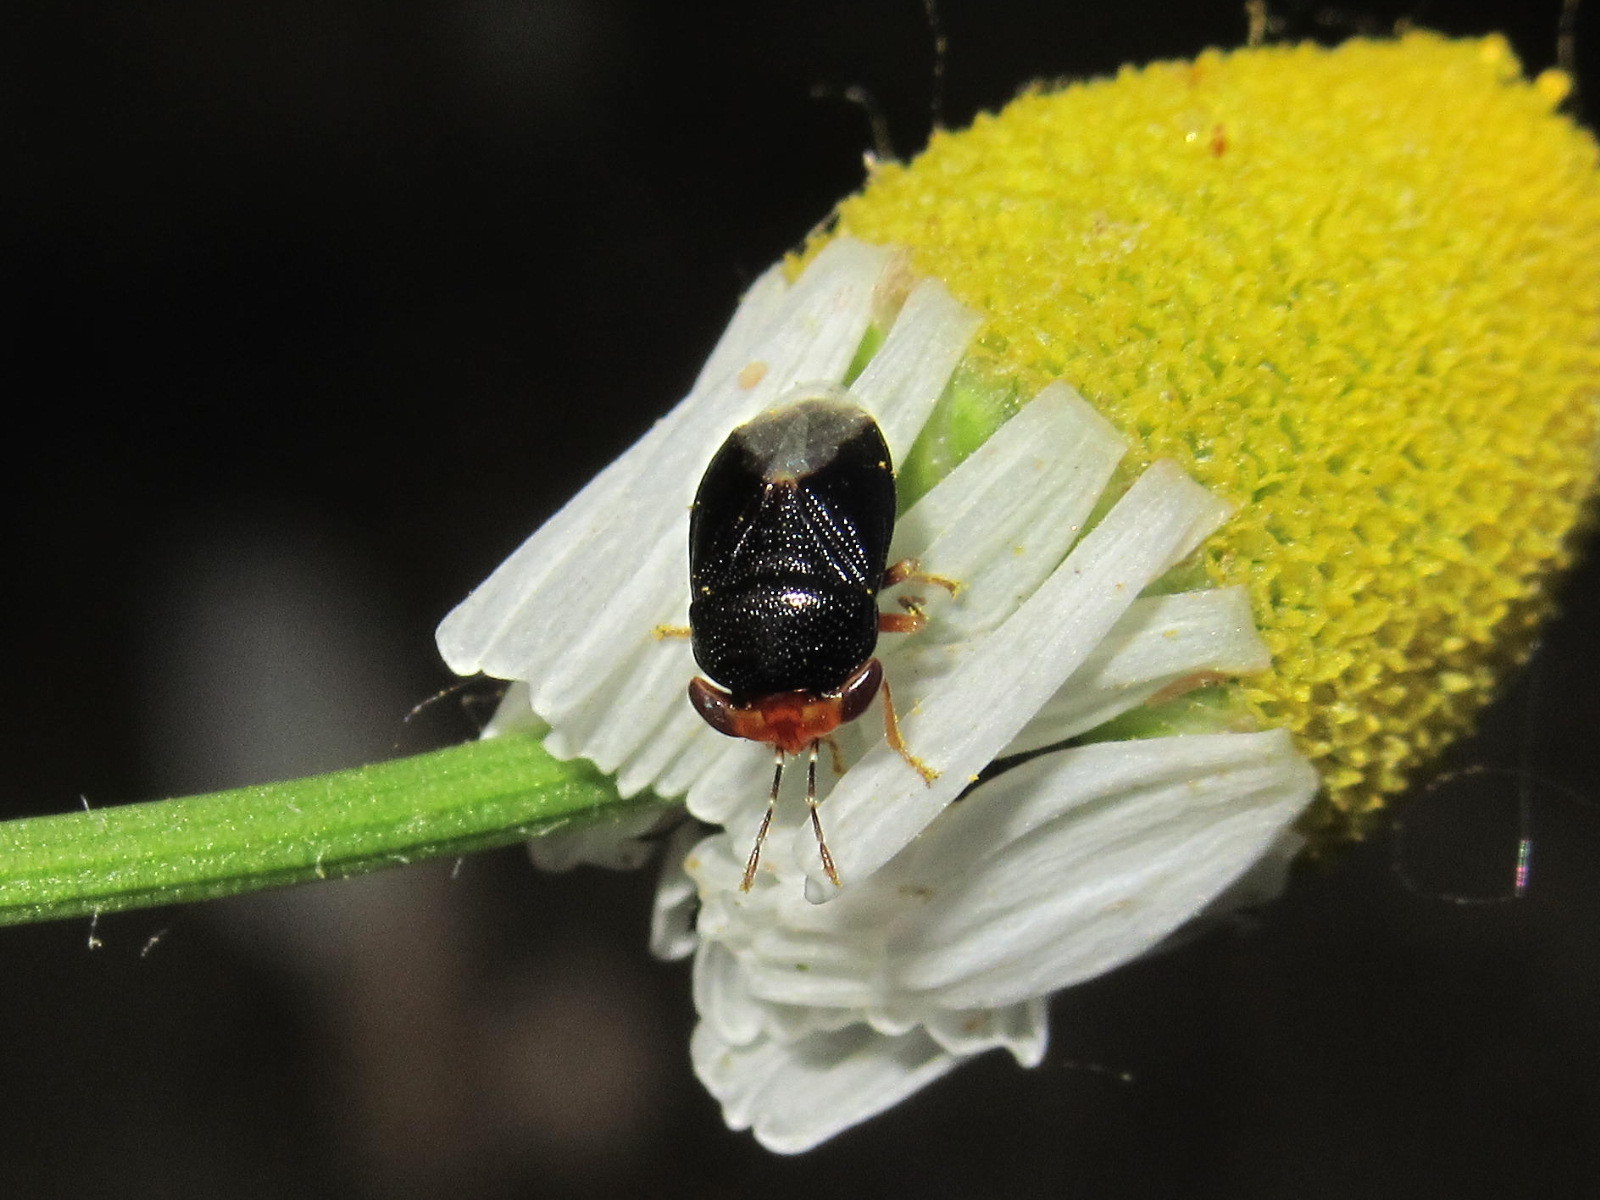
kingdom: Animalia
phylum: Arthropoda
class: Insecta
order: Hemiptera
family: Geocoridae
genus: Geocoris
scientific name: Geocoris erythrocephala
